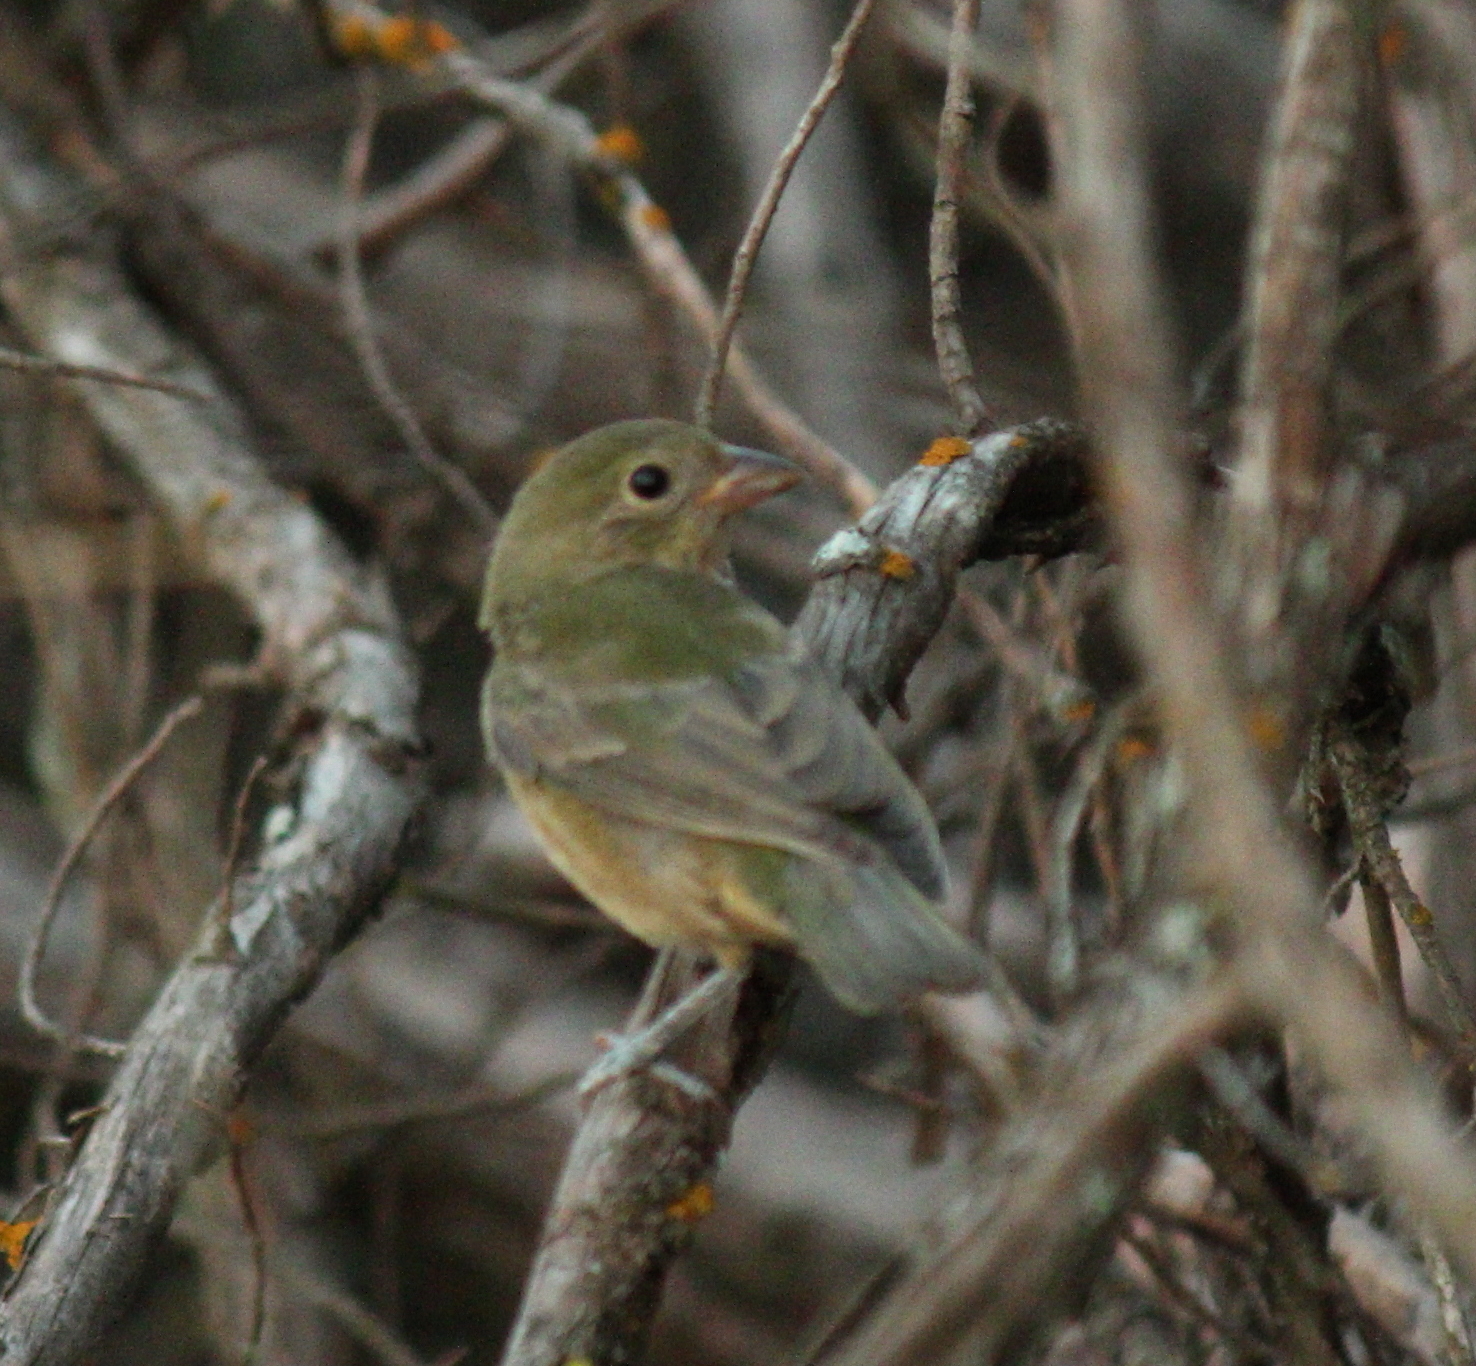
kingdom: Animalia
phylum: Chordata
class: Aves
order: Passeriformes
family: Cardinalidae
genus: Passerina
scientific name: Passerina ciris
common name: Painted bunting
